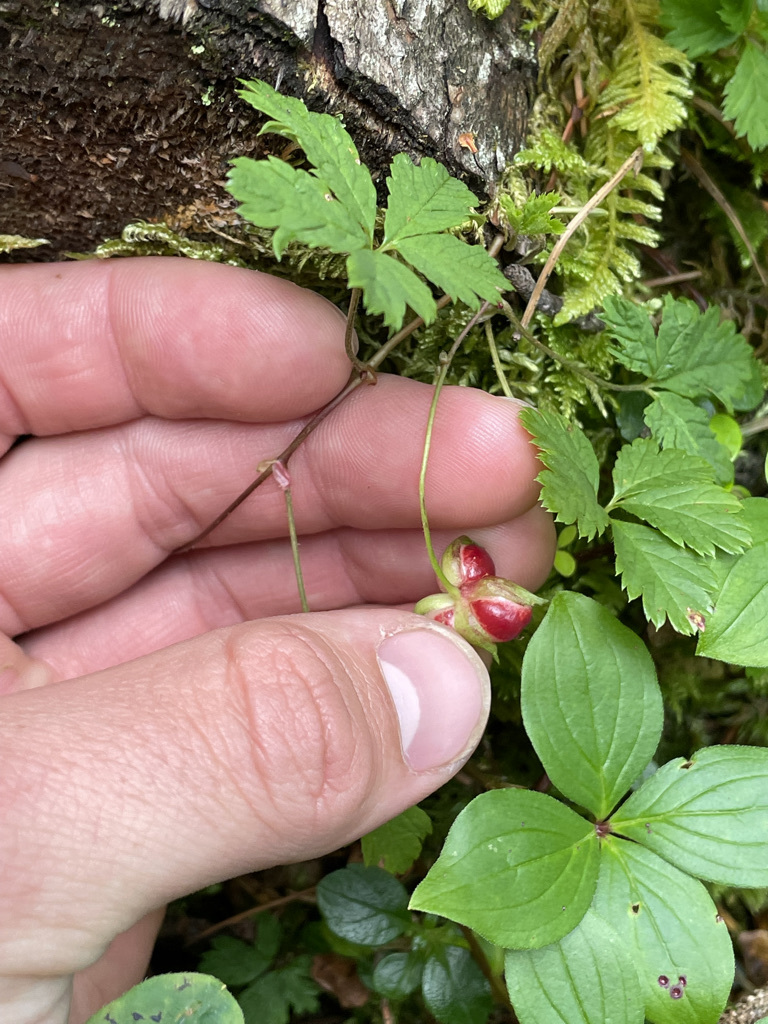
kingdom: Plantae
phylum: Tracheophyta
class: Magnoliopsida
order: Rosales
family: Rosaceae
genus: Rubus
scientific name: Rubus pedatus
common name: Creeping raspberry
